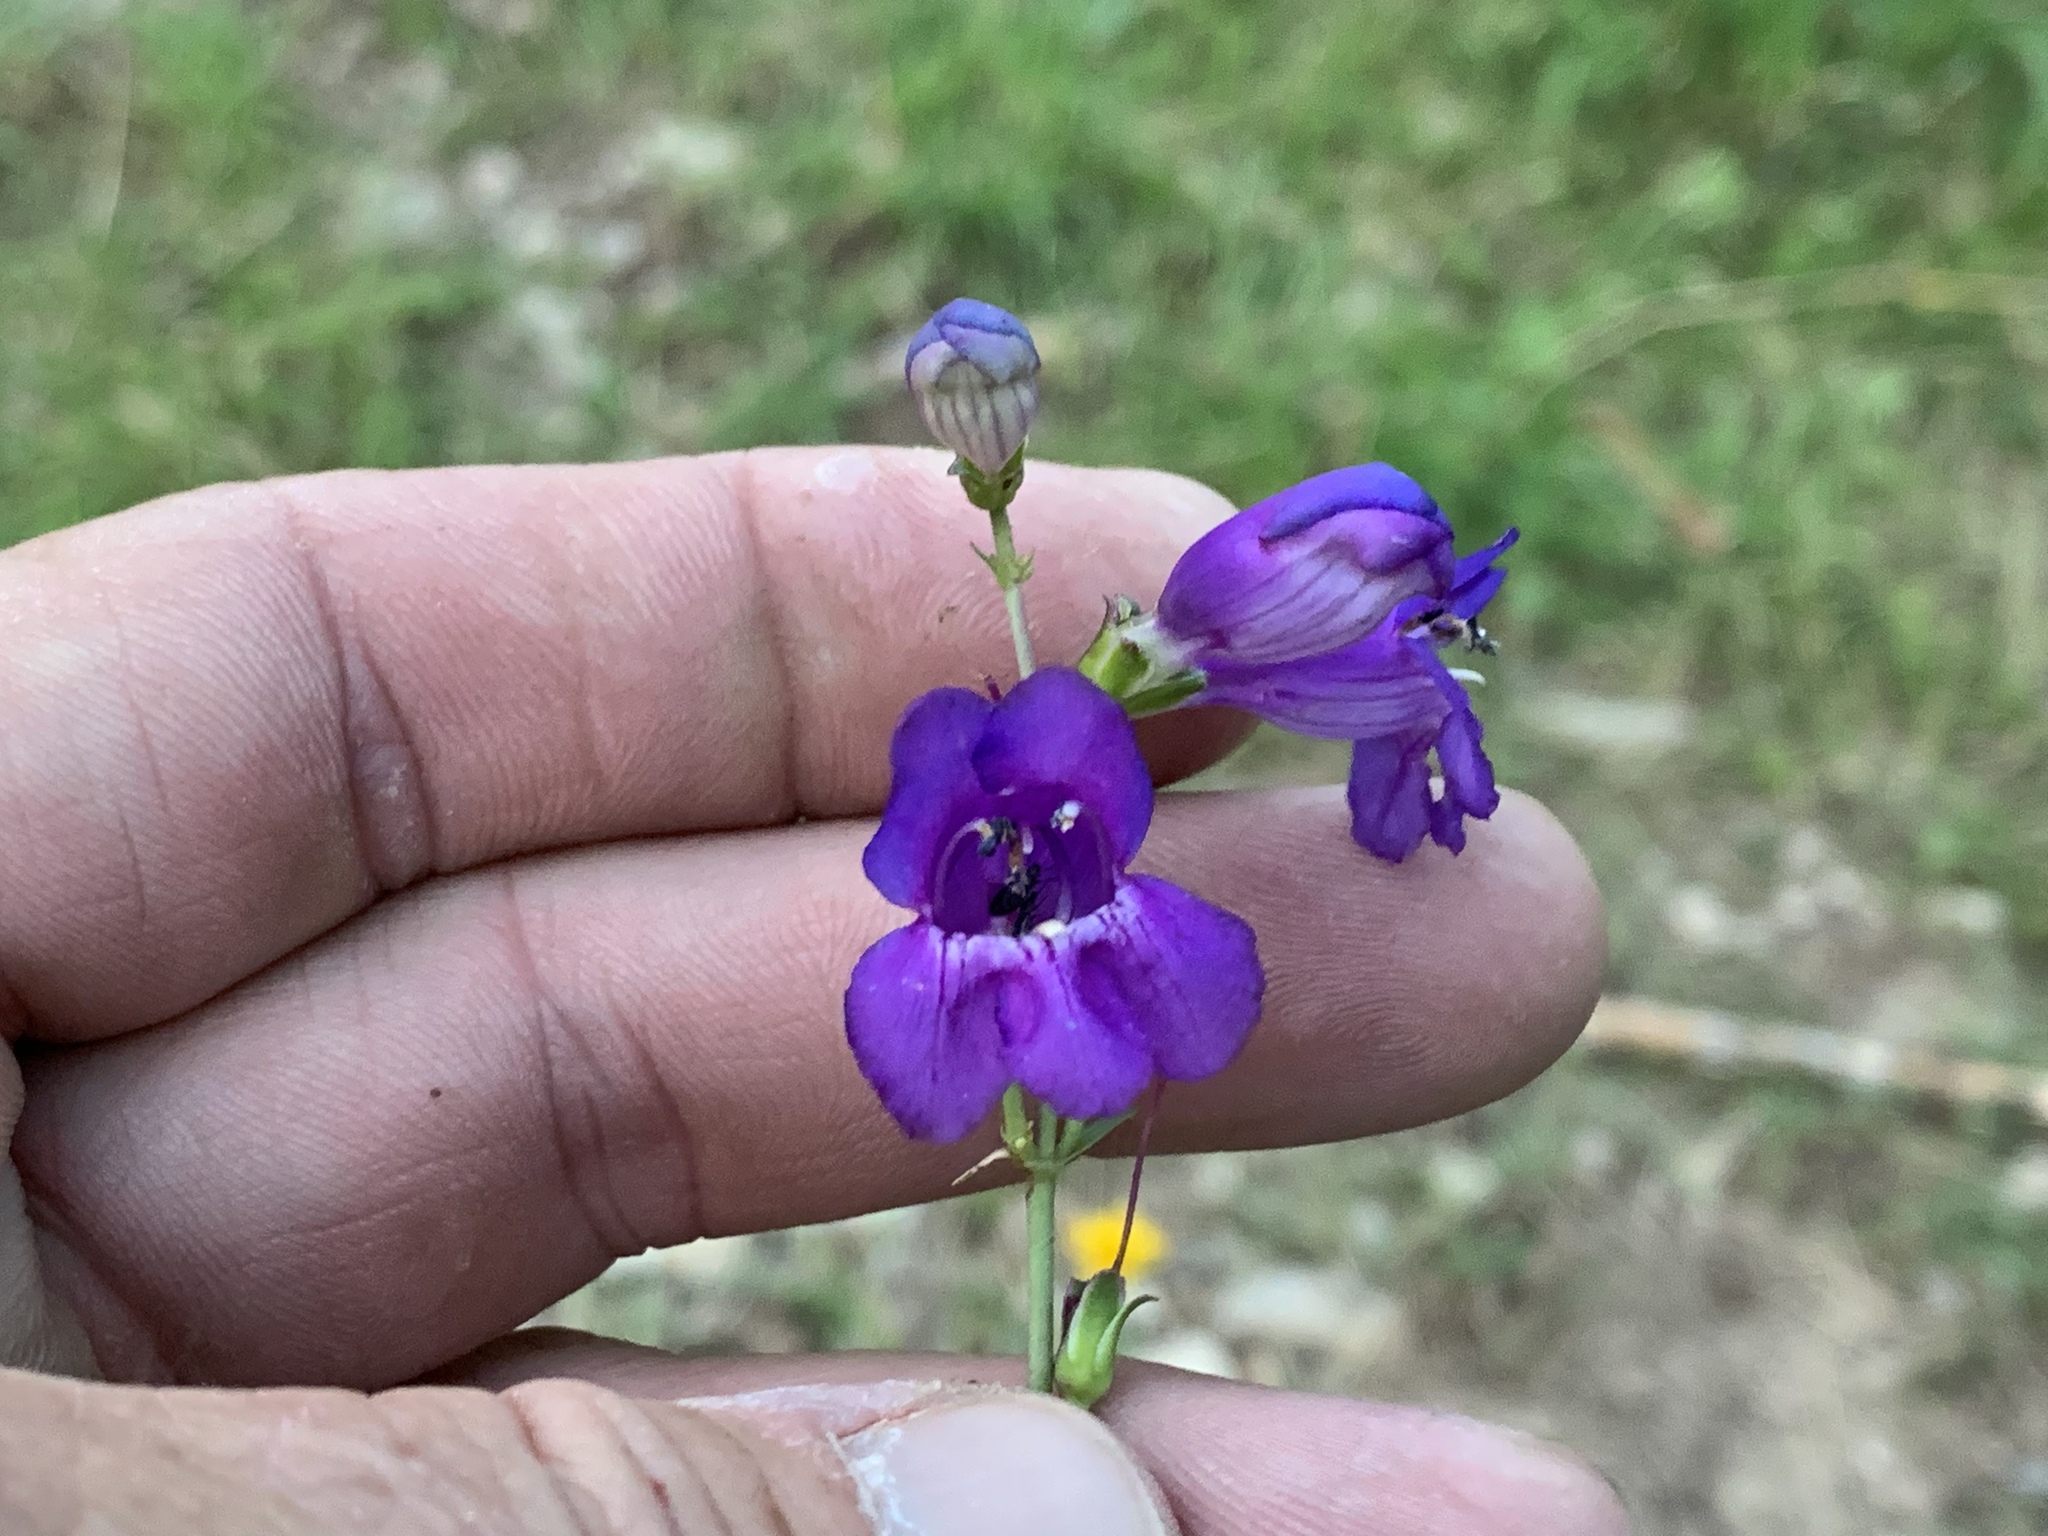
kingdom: Plantae
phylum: Tracheophyta
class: Magnoliopsida
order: Lamiales
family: Plantaginaceae
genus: Penstemon
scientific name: Penstemon neomexicanus
